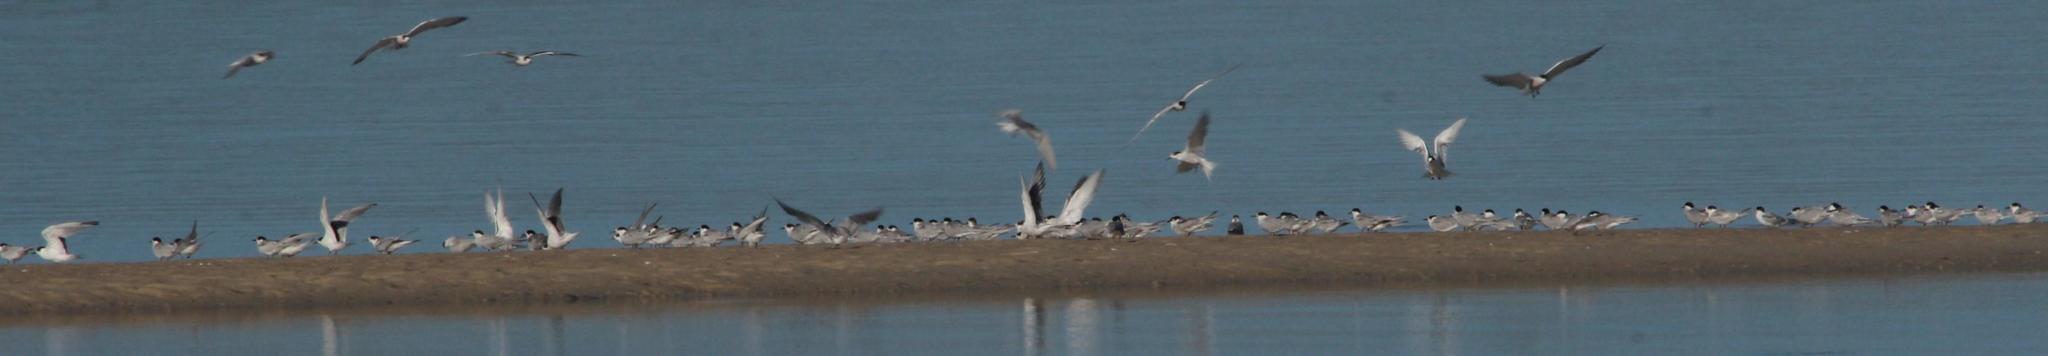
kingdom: Animalia
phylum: Chordata
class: Aves
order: Charadriiformes
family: Laridae
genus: Sterna
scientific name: Sterna hirundo
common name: Common tern
